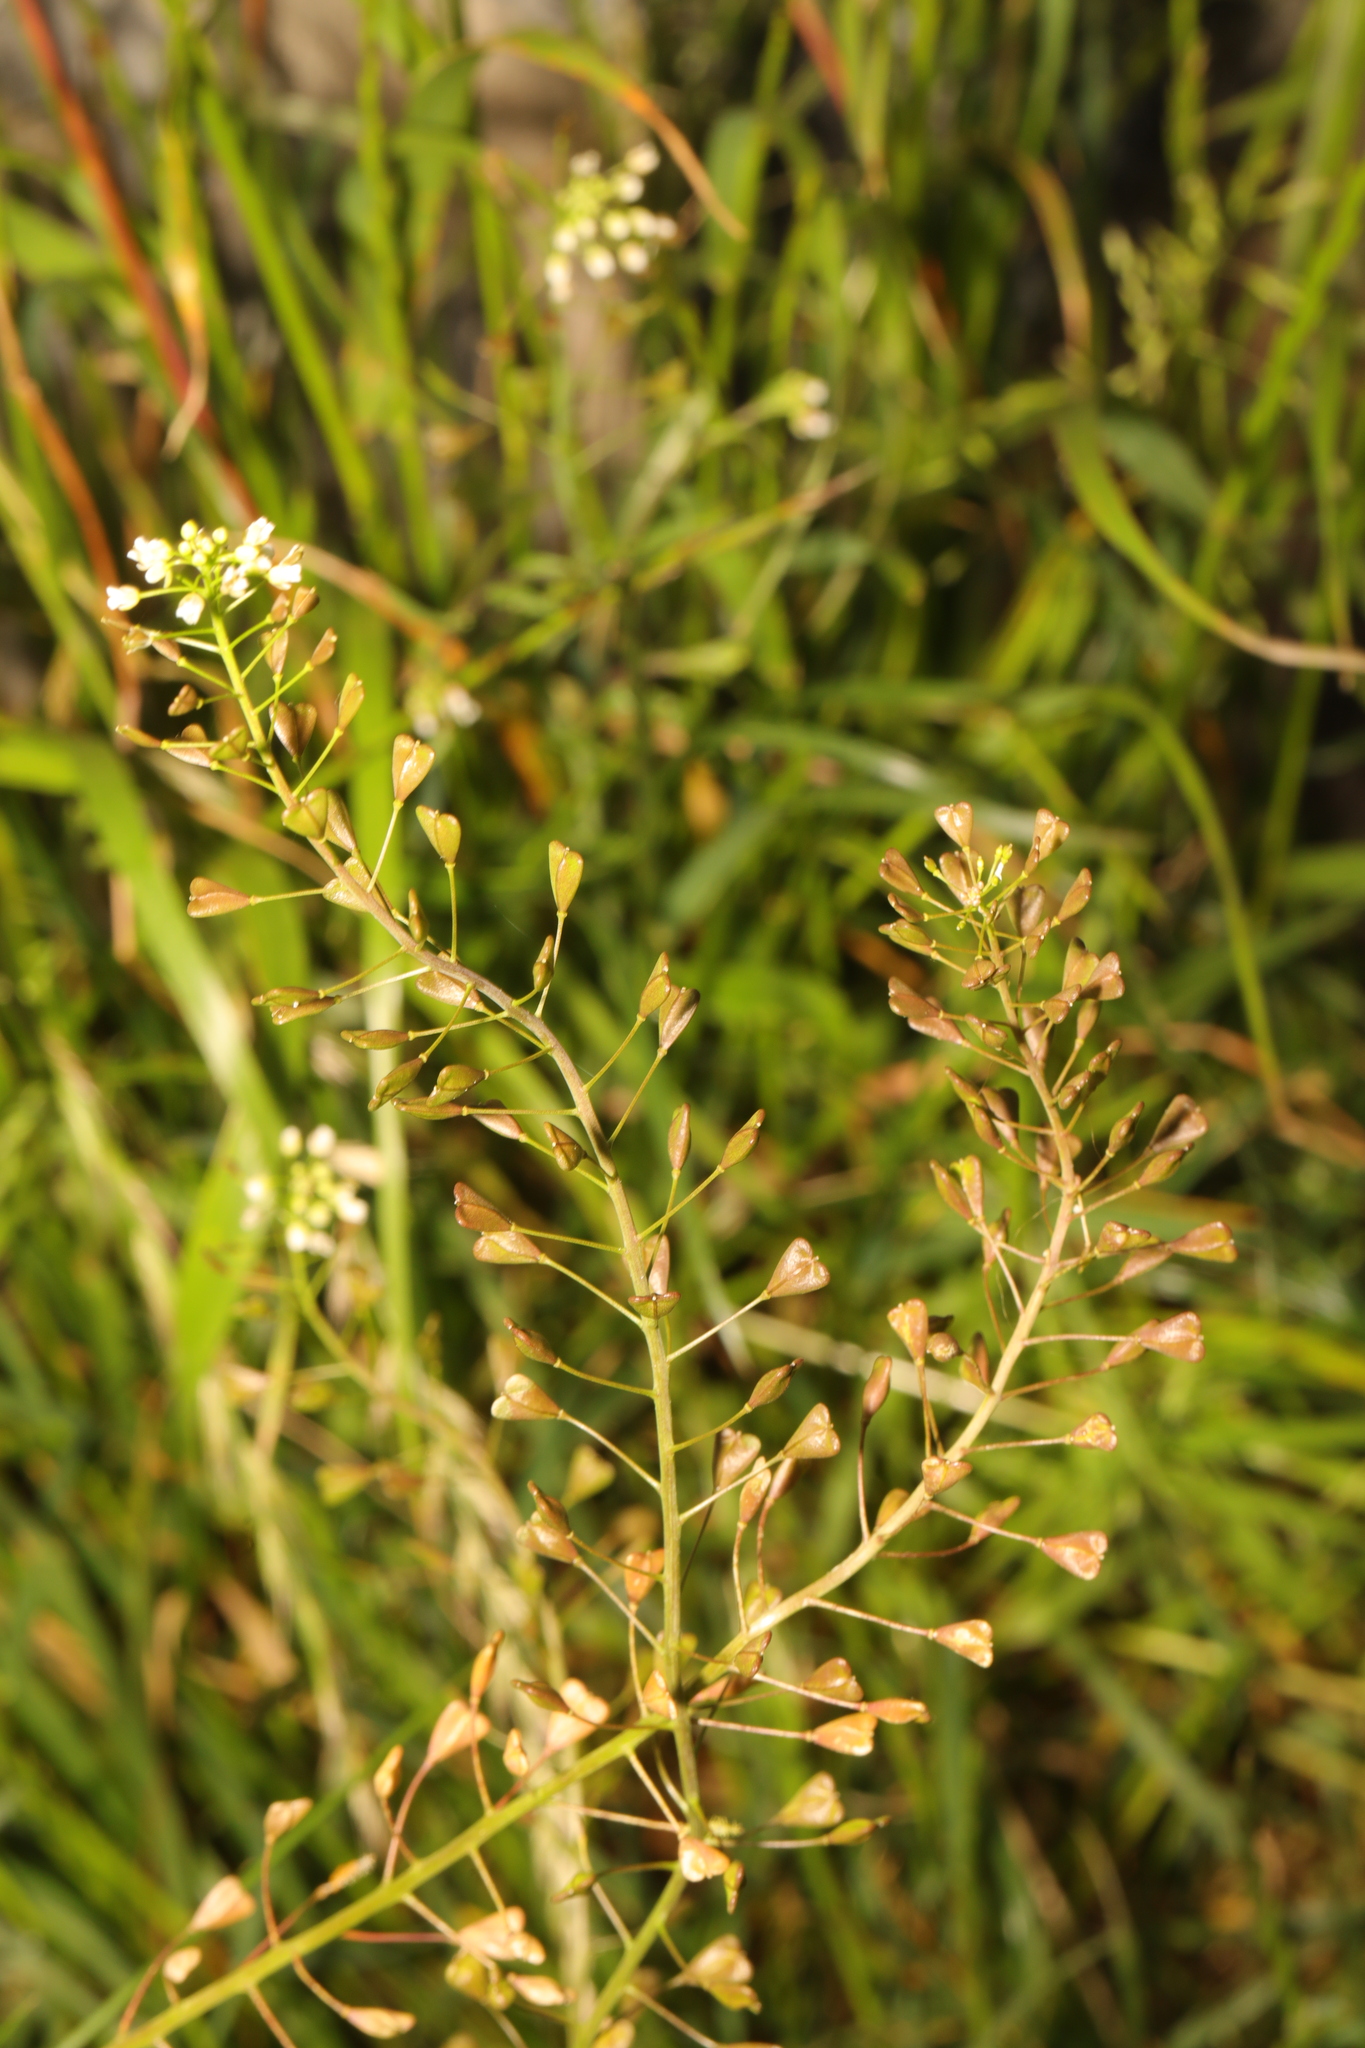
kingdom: Plantae
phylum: Tracheophyta
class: Magnoliopsida
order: Brassicales
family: Brassicaceae
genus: Capsella
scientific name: Capsella bursa-pastoris
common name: Shepherd's purse
